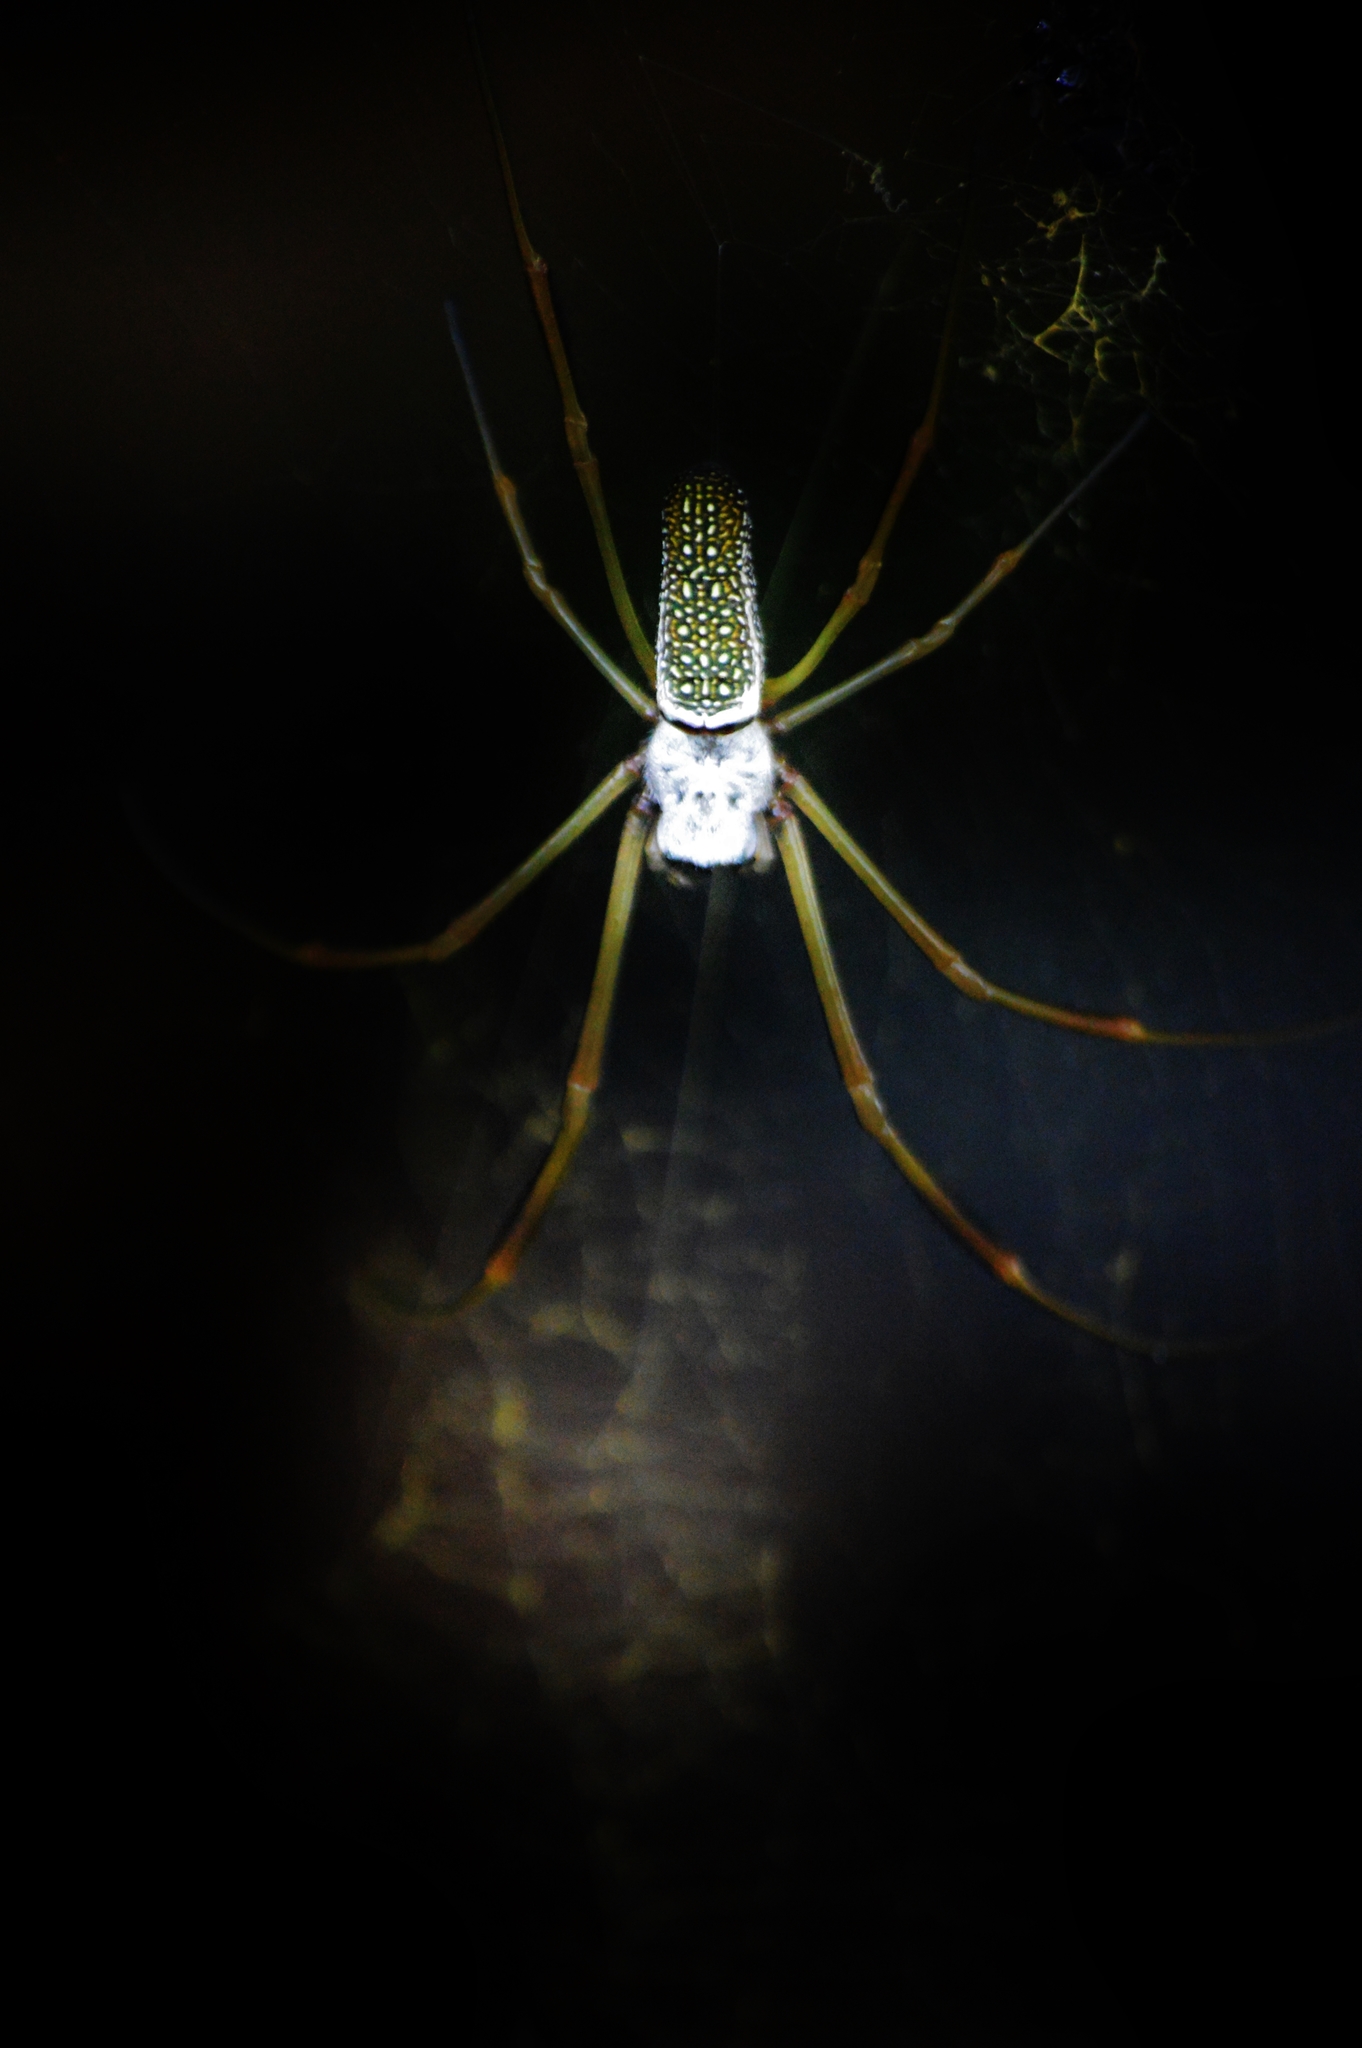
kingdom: Animalia
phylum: Arthropoda
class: Arachnida
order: Araneae
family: Araneidae
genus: Trichonephila
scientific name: Trichonephila clavipes
